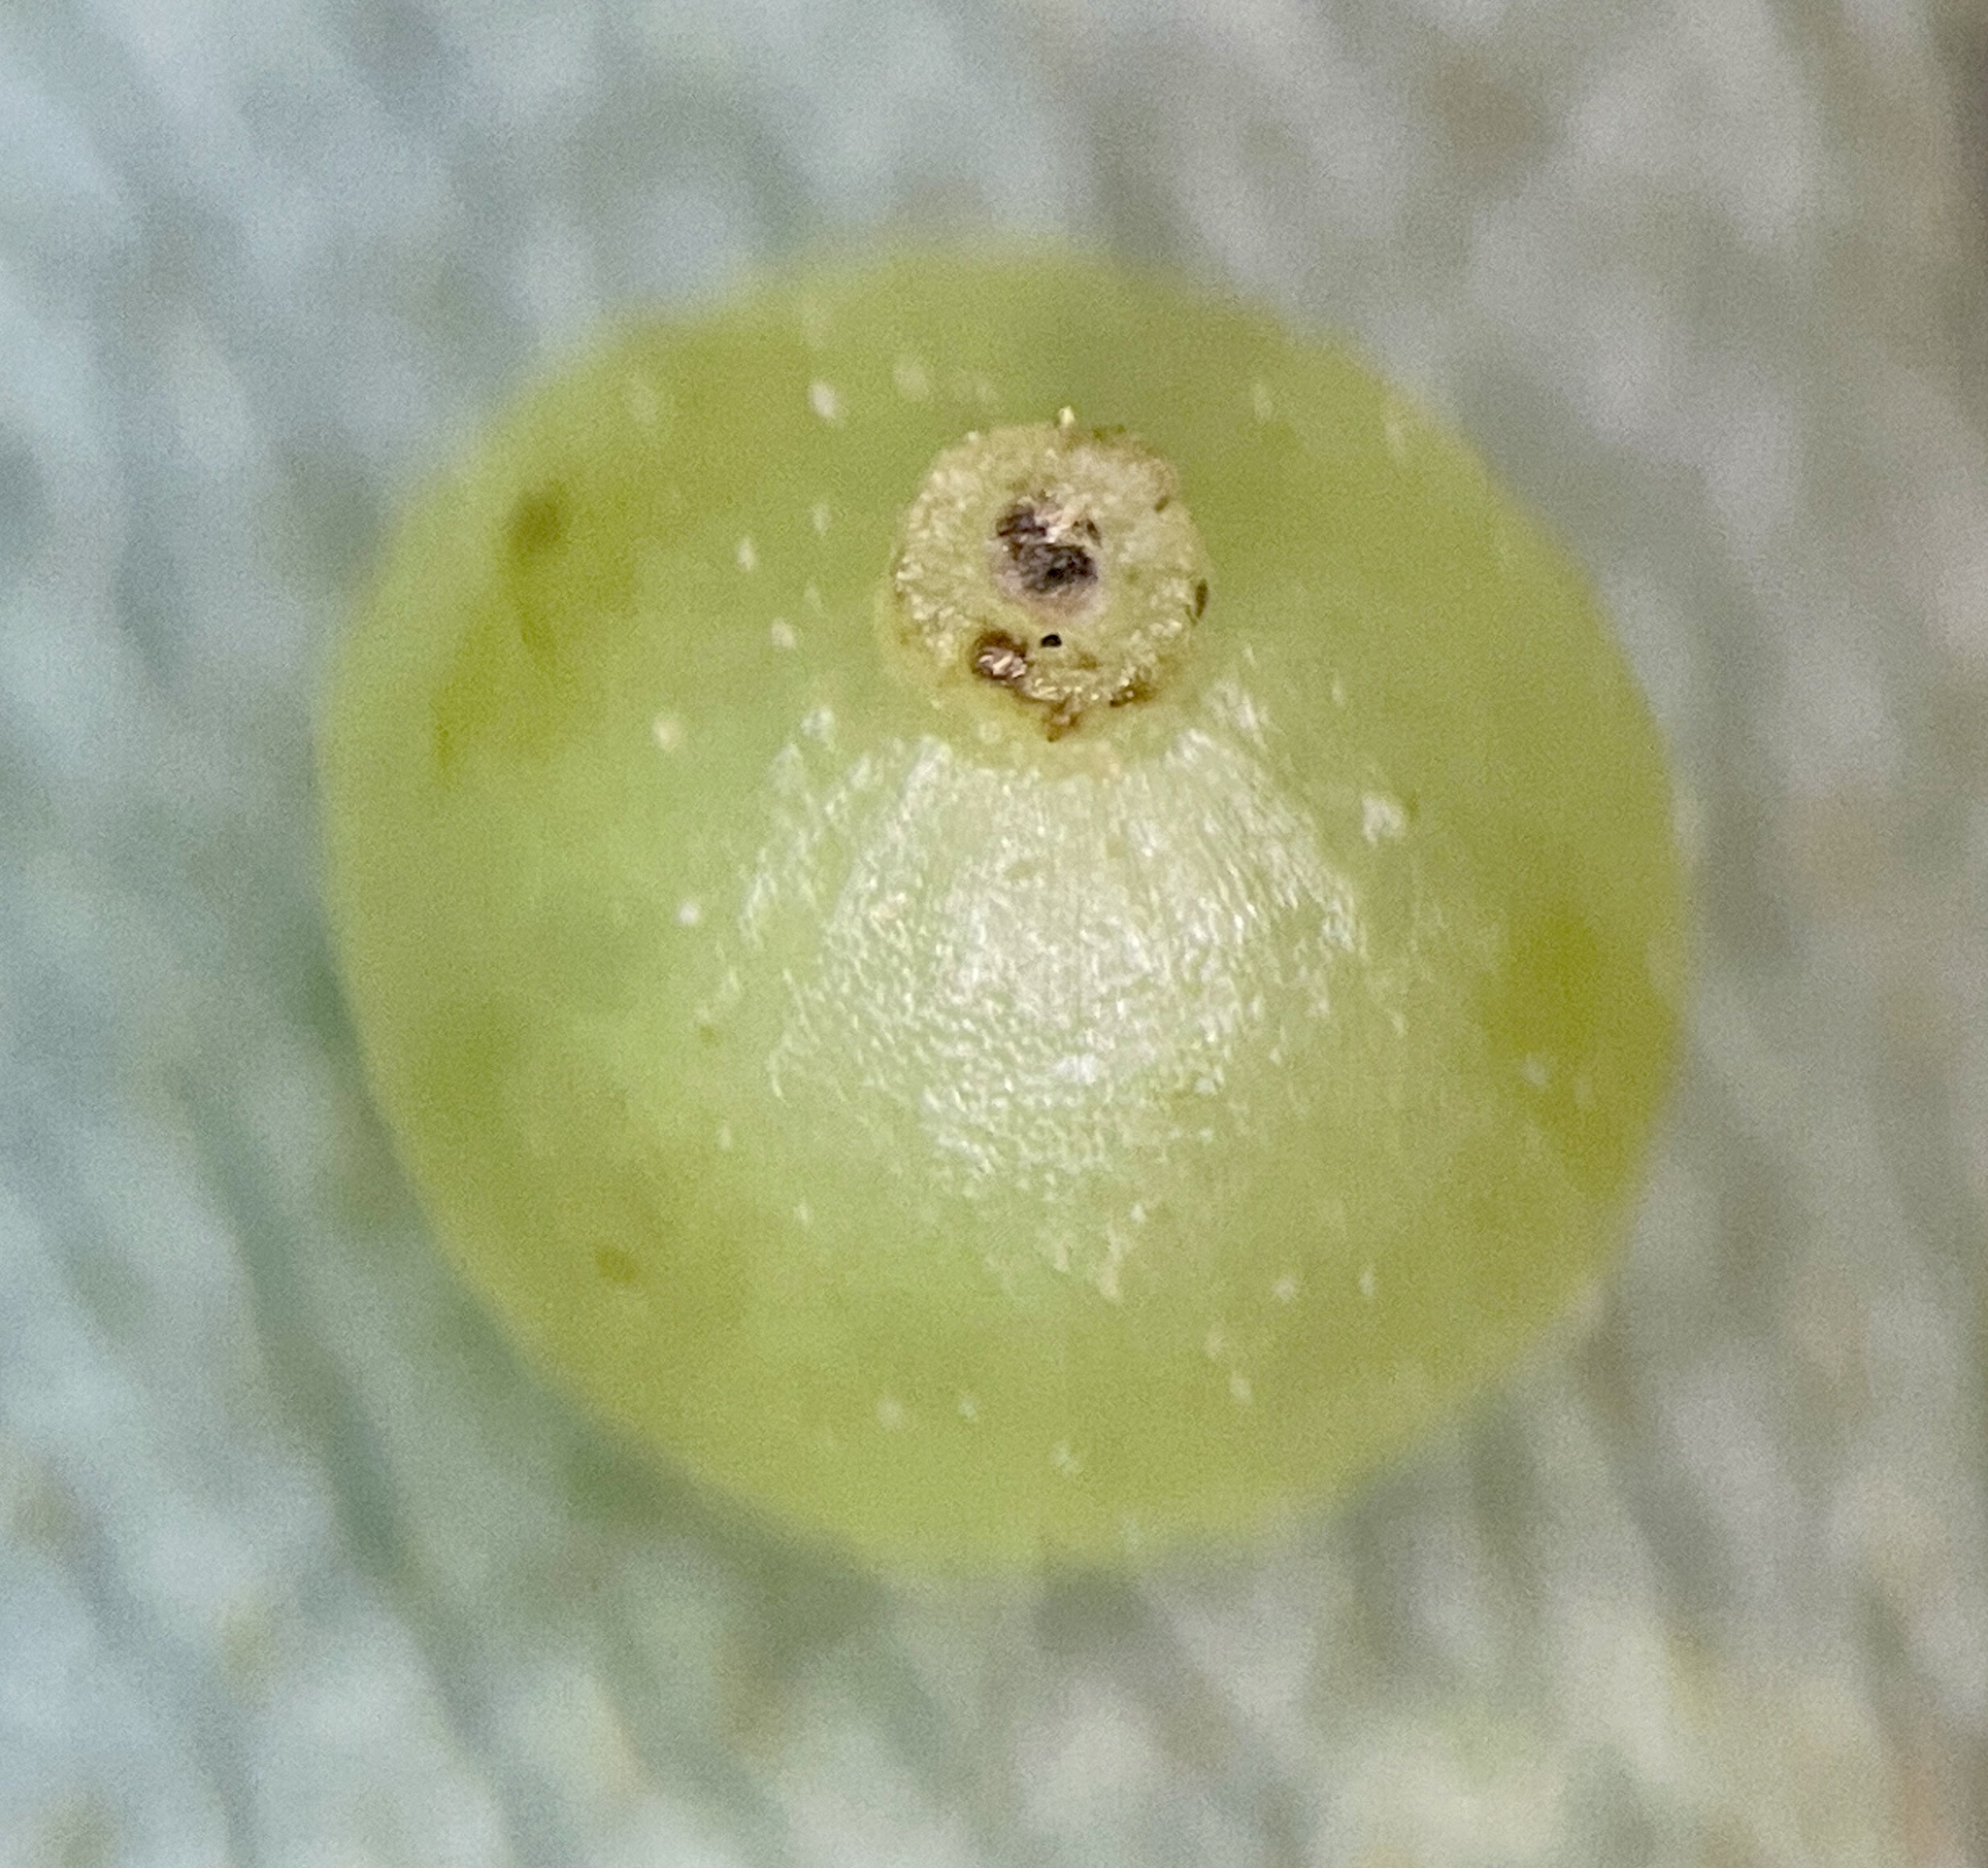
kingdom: Animalia
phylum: Arthropoda
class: Insecta
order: Diptera
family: Cecidomyiidae
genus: Caryomyia
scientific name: Caryomyia leviglobus
